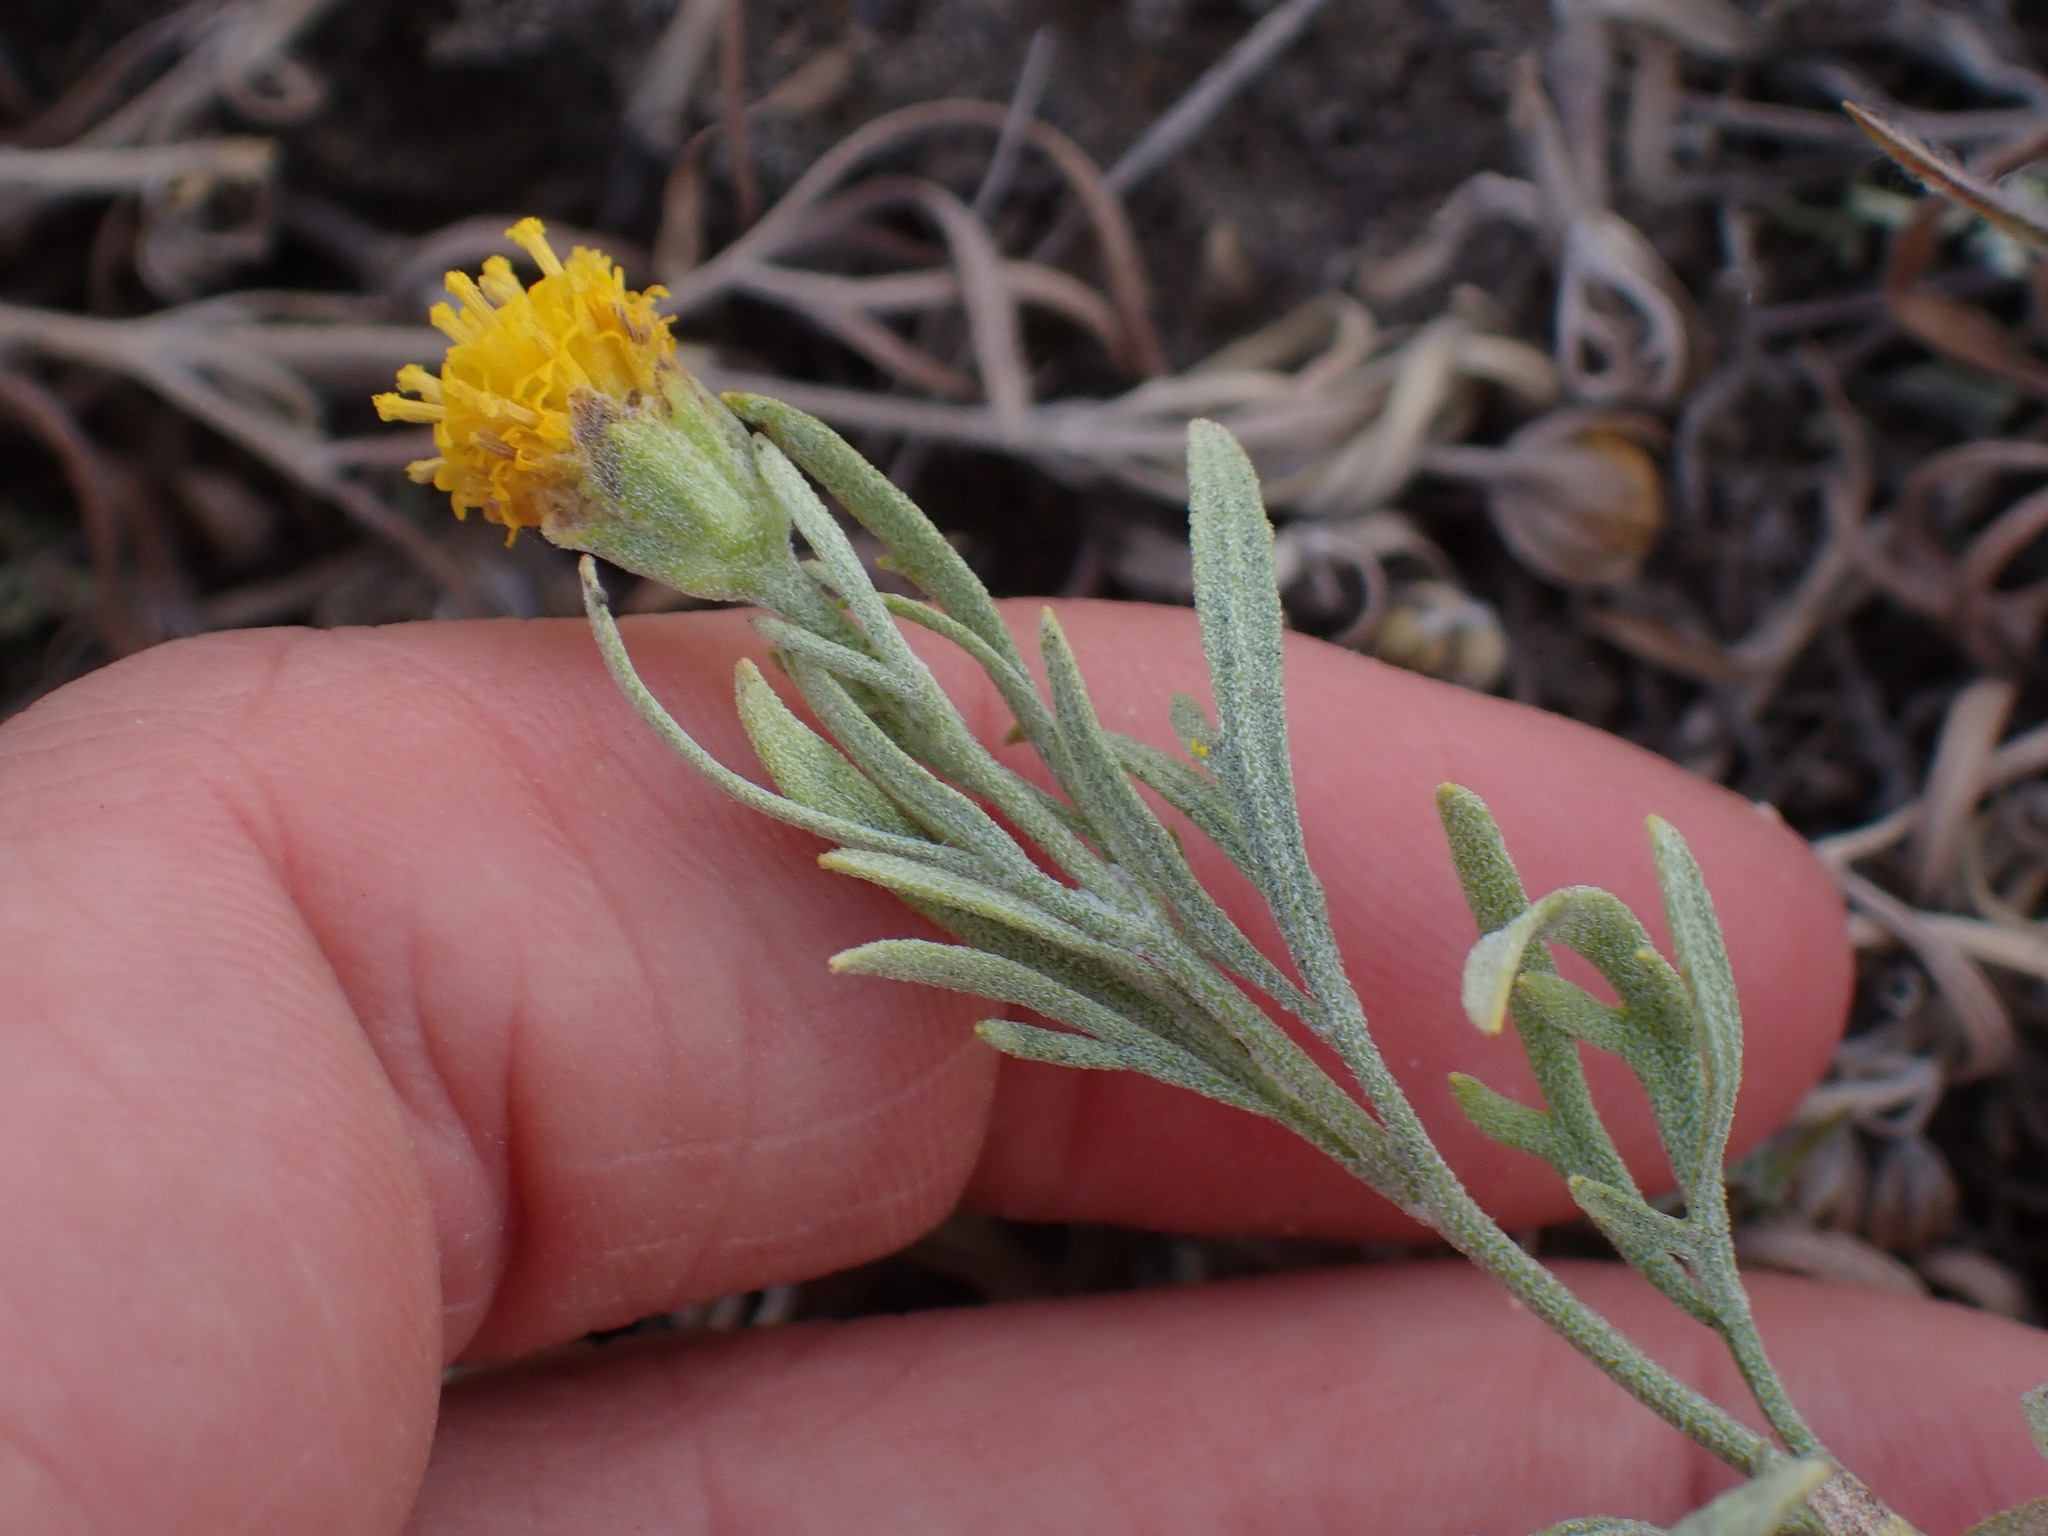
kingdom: Plantae
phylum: Tracheophyta
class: Magnoliopsida
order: Asterales
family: Asteraceae
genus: Heterotheca
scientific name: Heterotheca villosa
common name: Hairy false goldenaster
